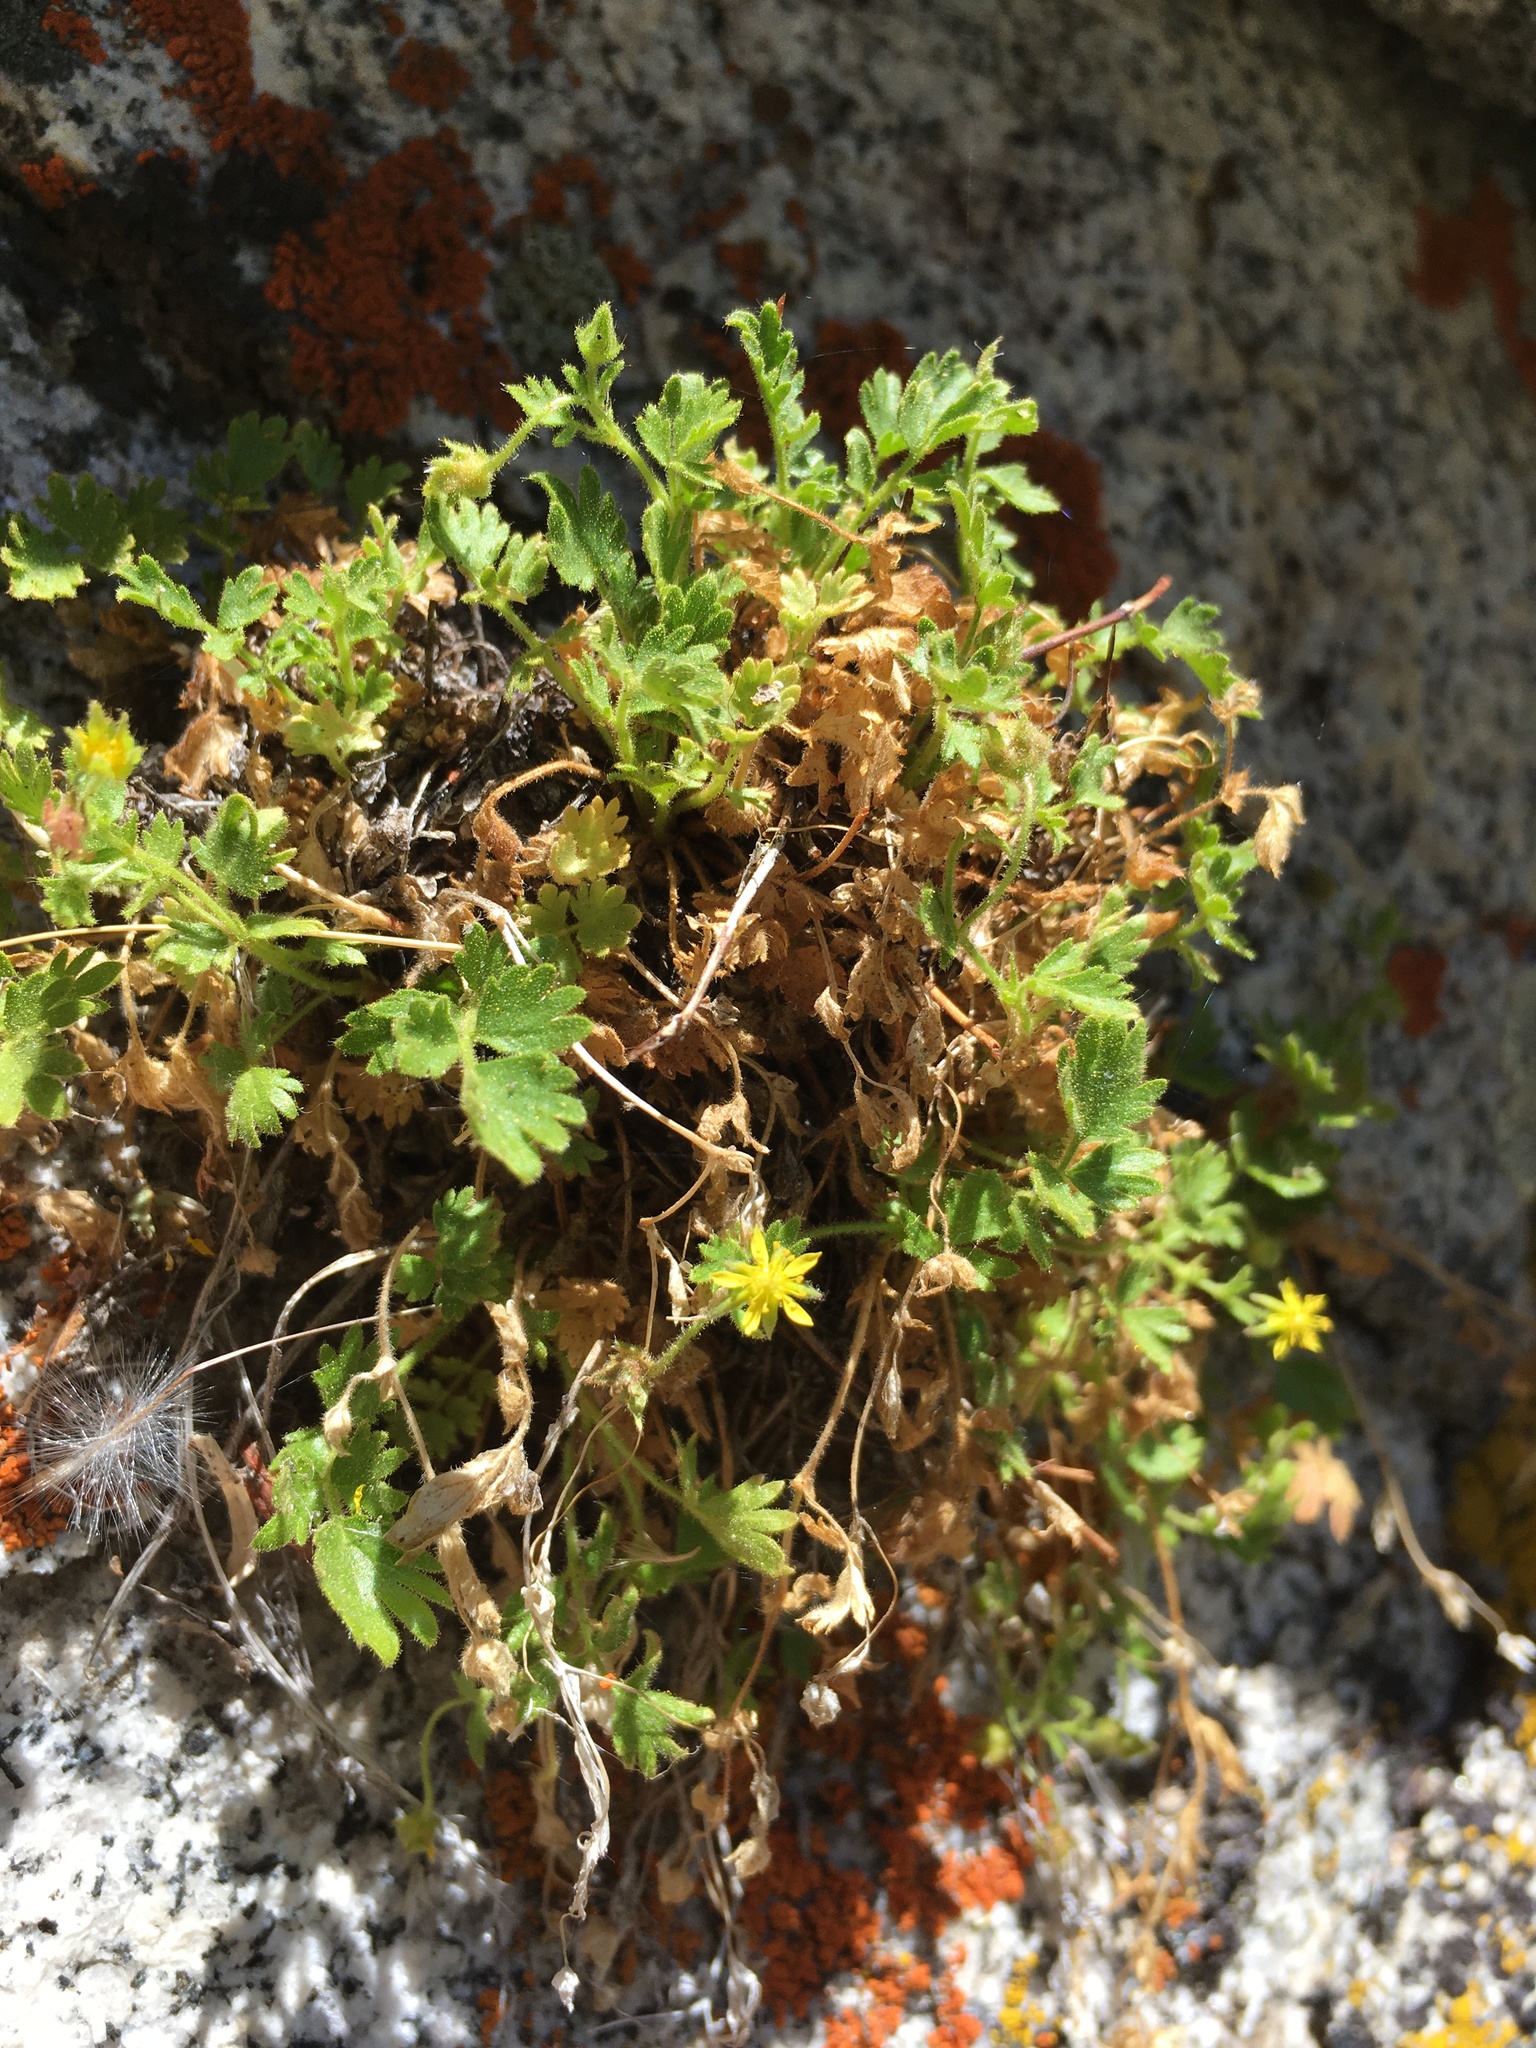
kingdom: Plantae
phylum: Tracheophyta
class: Magnoliopsida
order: Rosales
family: Rosaceae
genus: Potentilla
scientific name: Potentilla saxosa
